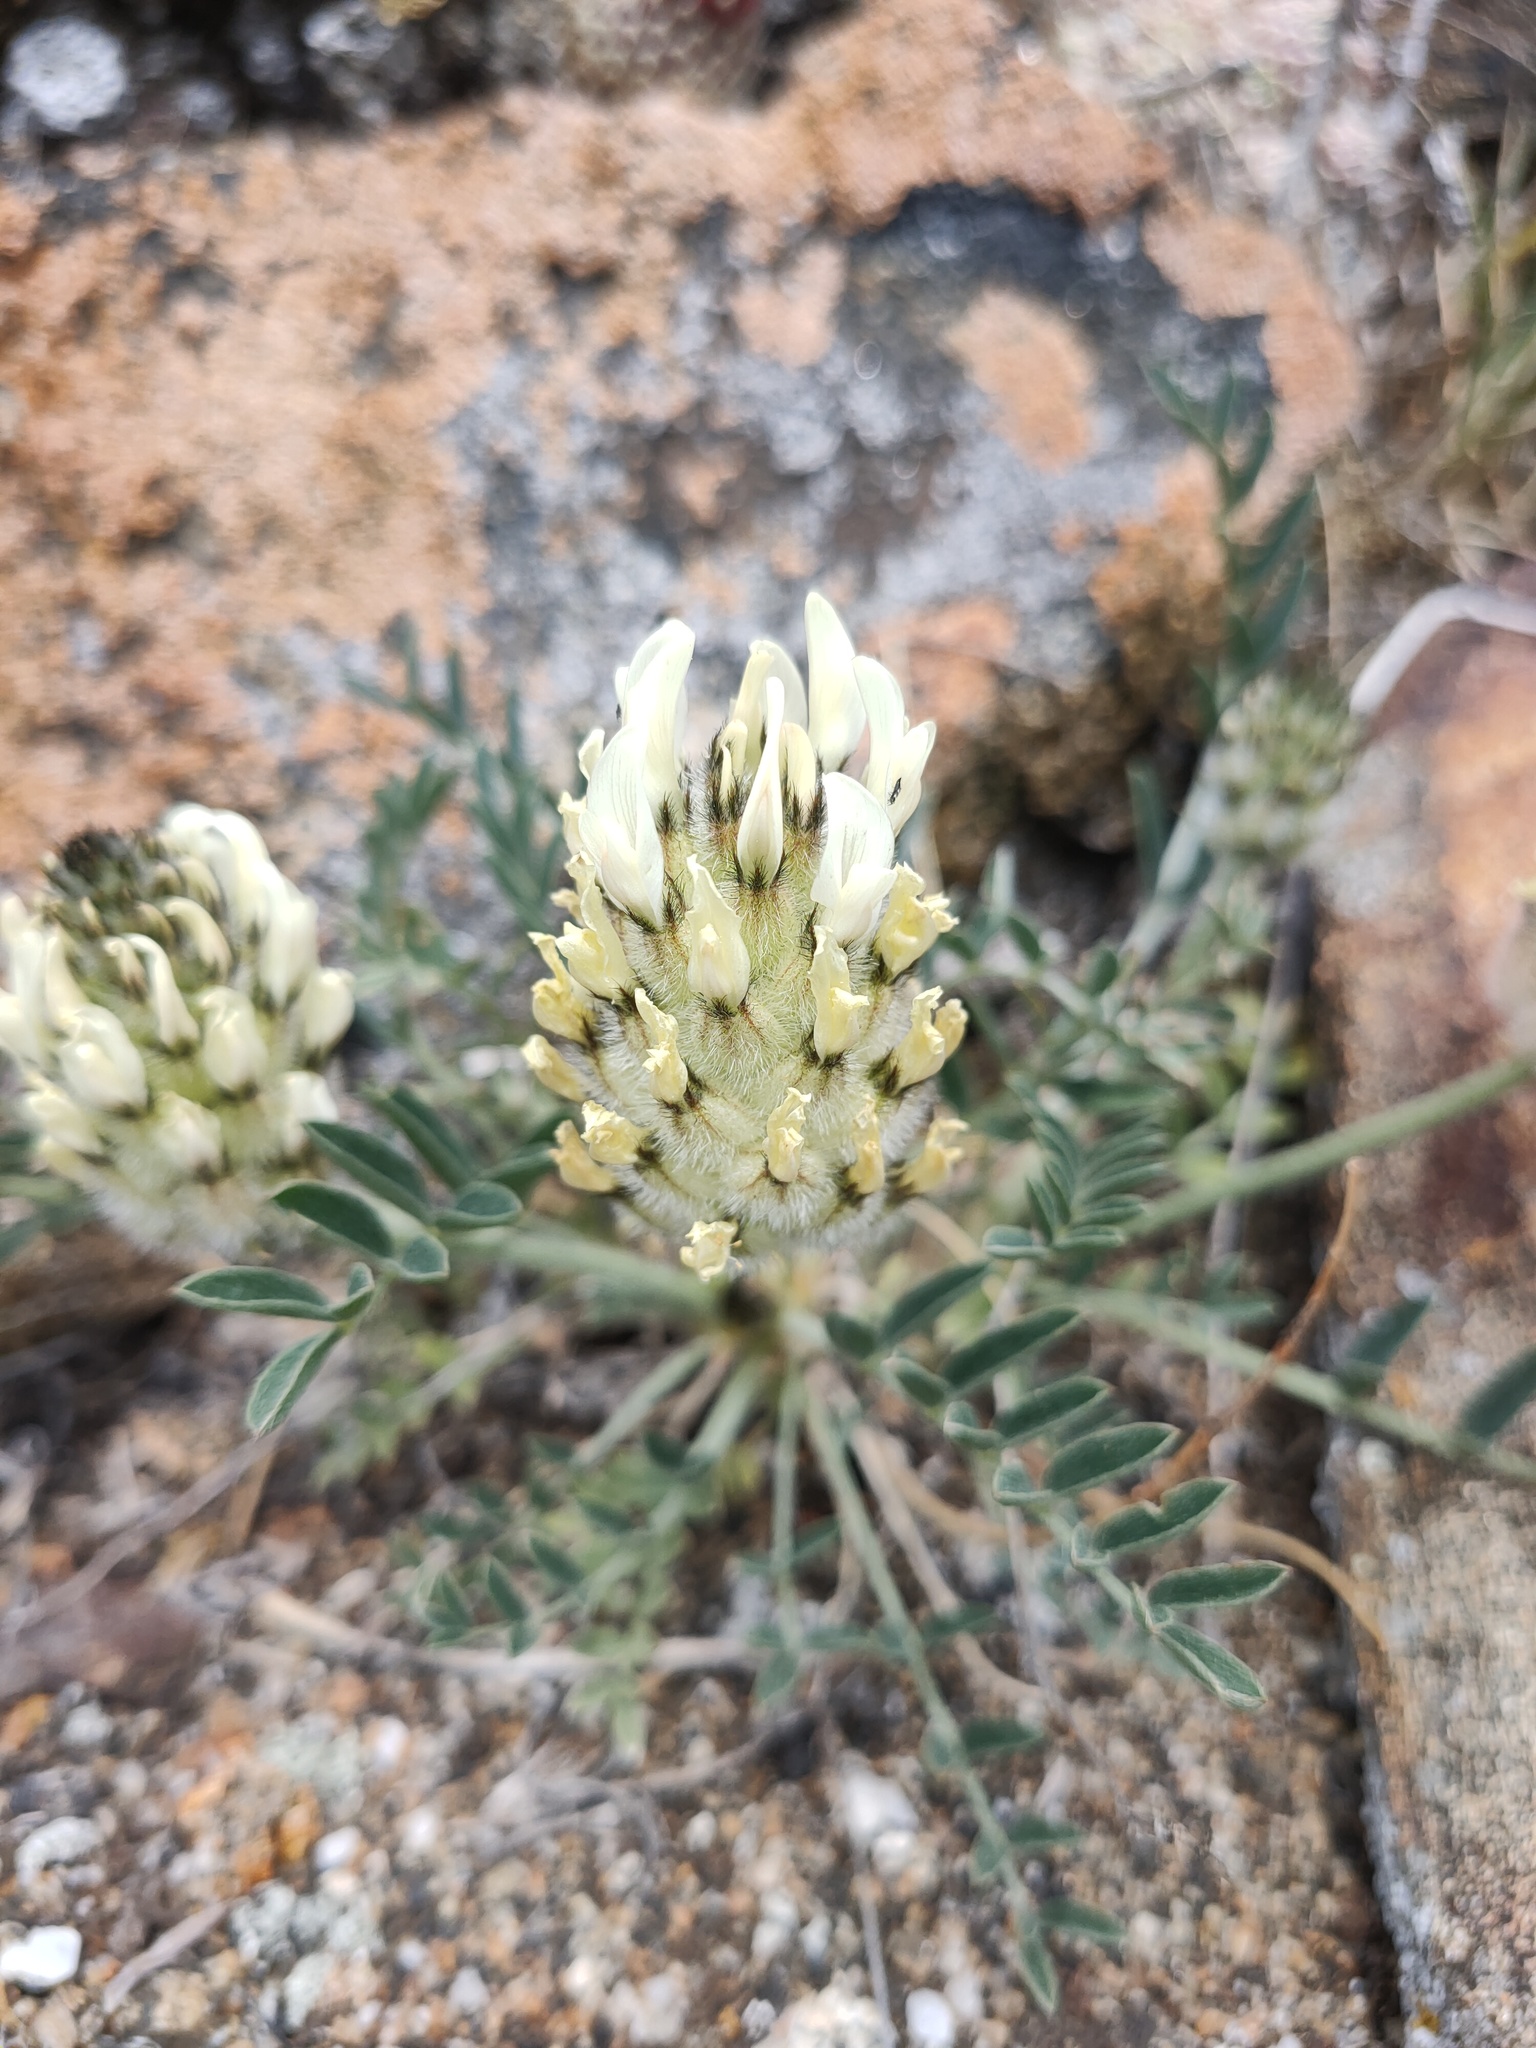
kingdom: Plantae
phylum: Tracheophyta
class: Magnoliopsida
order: Fabales
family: Fabaceae
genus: Astragalus
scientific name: Astragalus lupulinus
